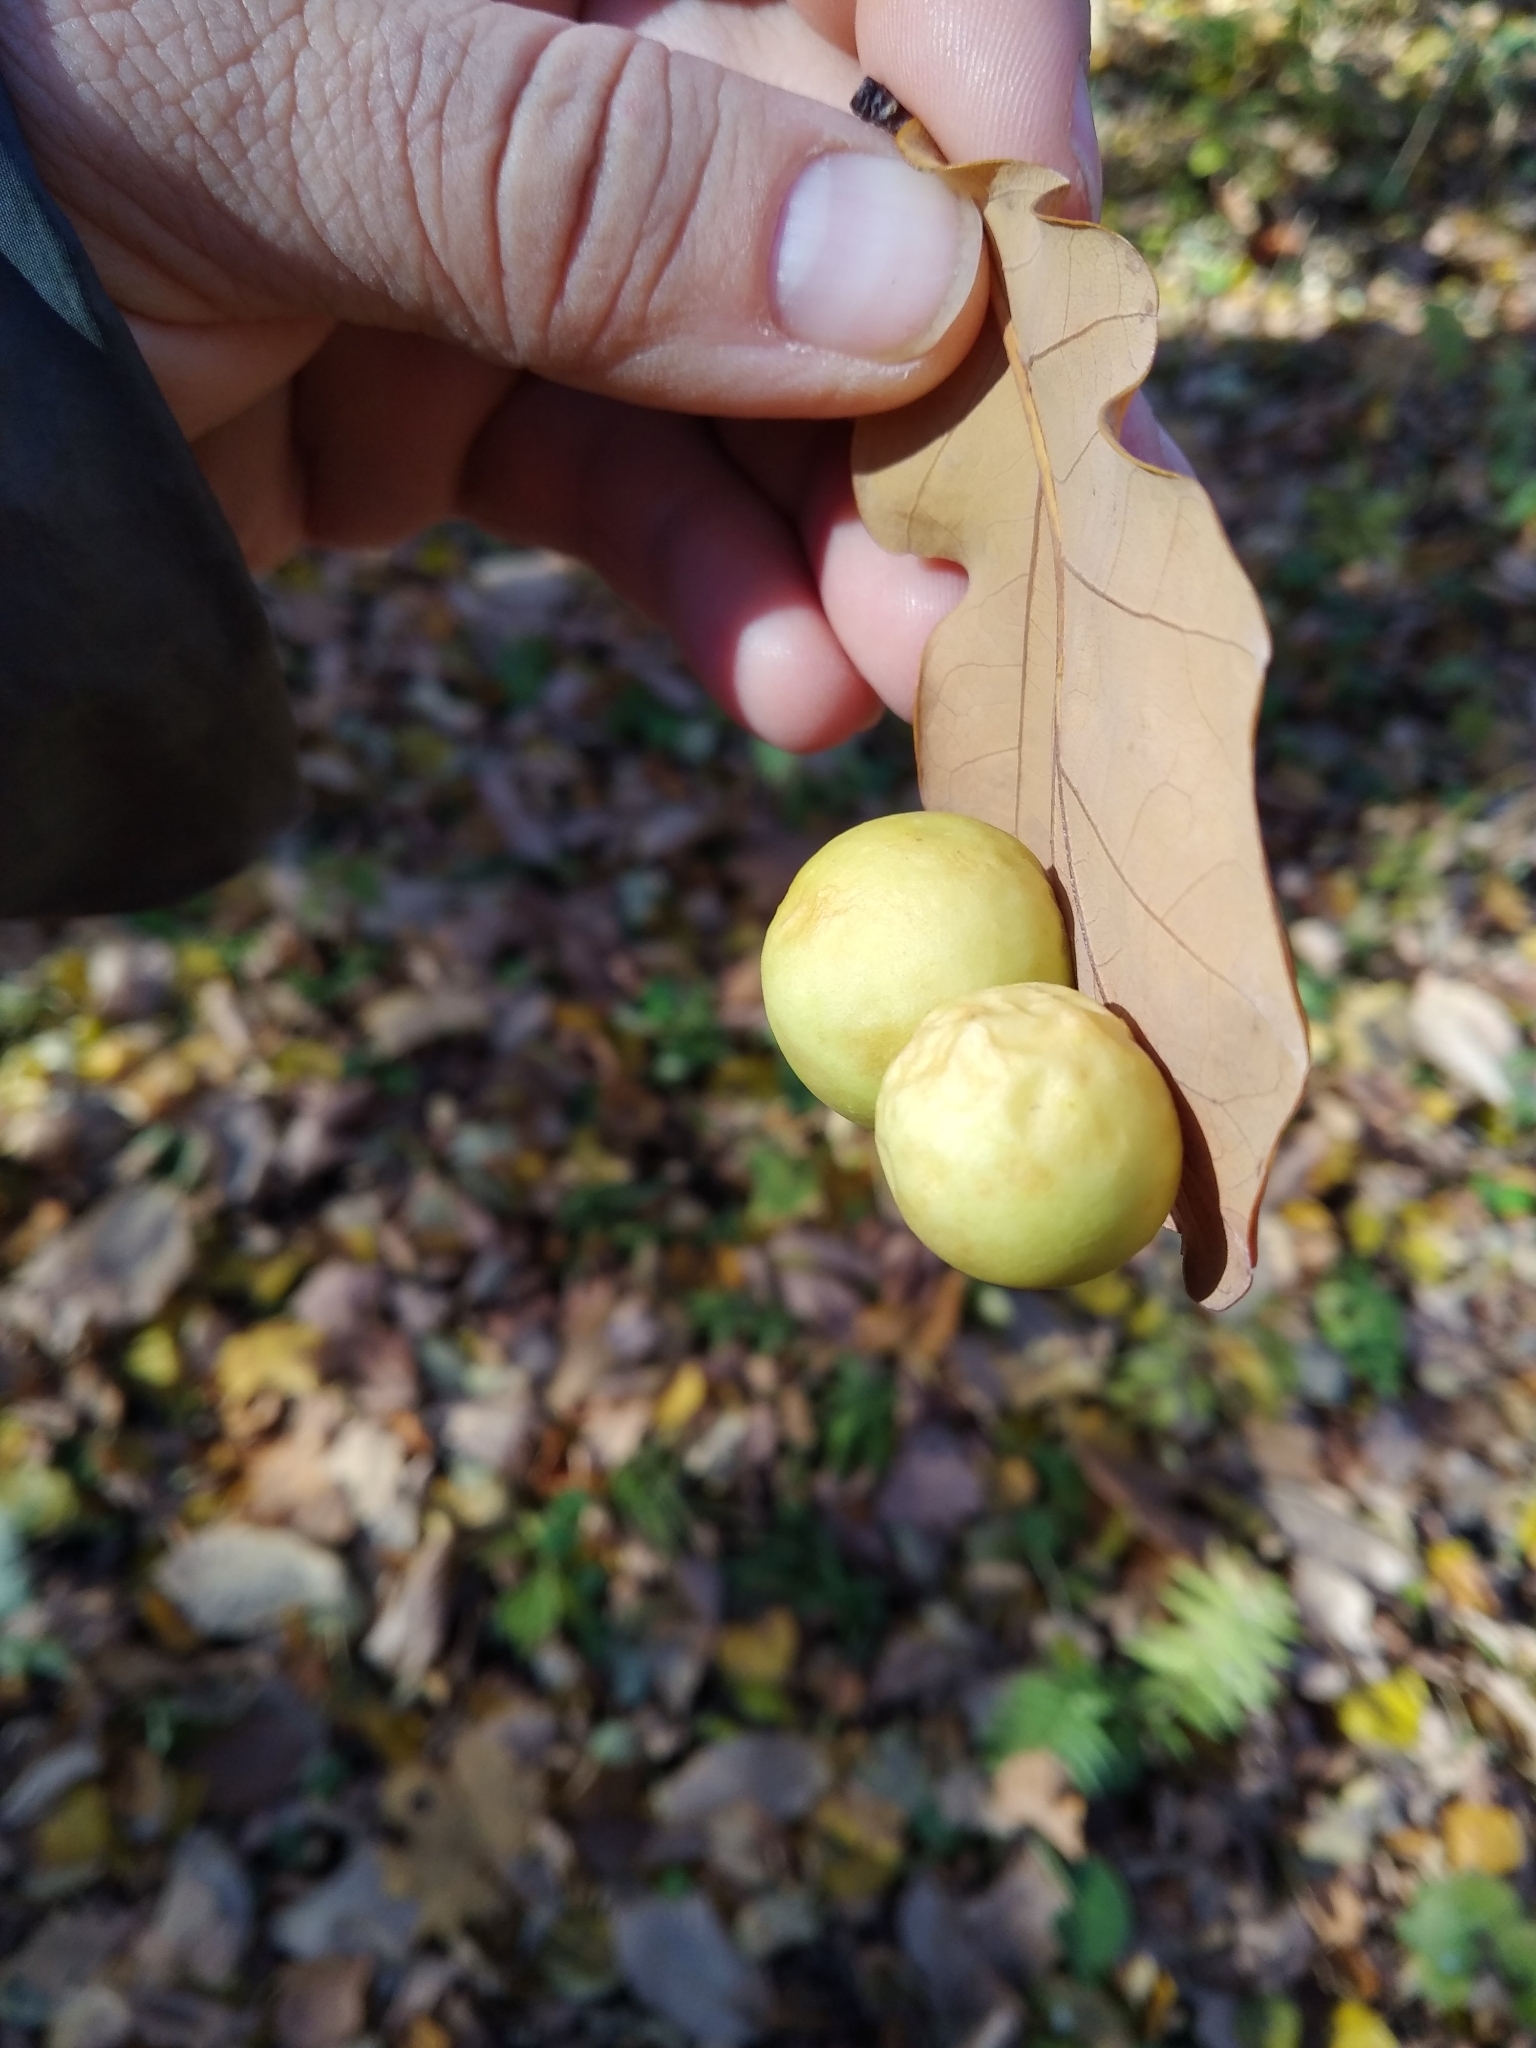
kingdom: Animalia
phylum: Arthropoda
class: Insecta
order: Hymenoptera
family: Cynipidae
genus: Cynips
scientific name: Cynips quercusfolii
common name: Cherry gall
